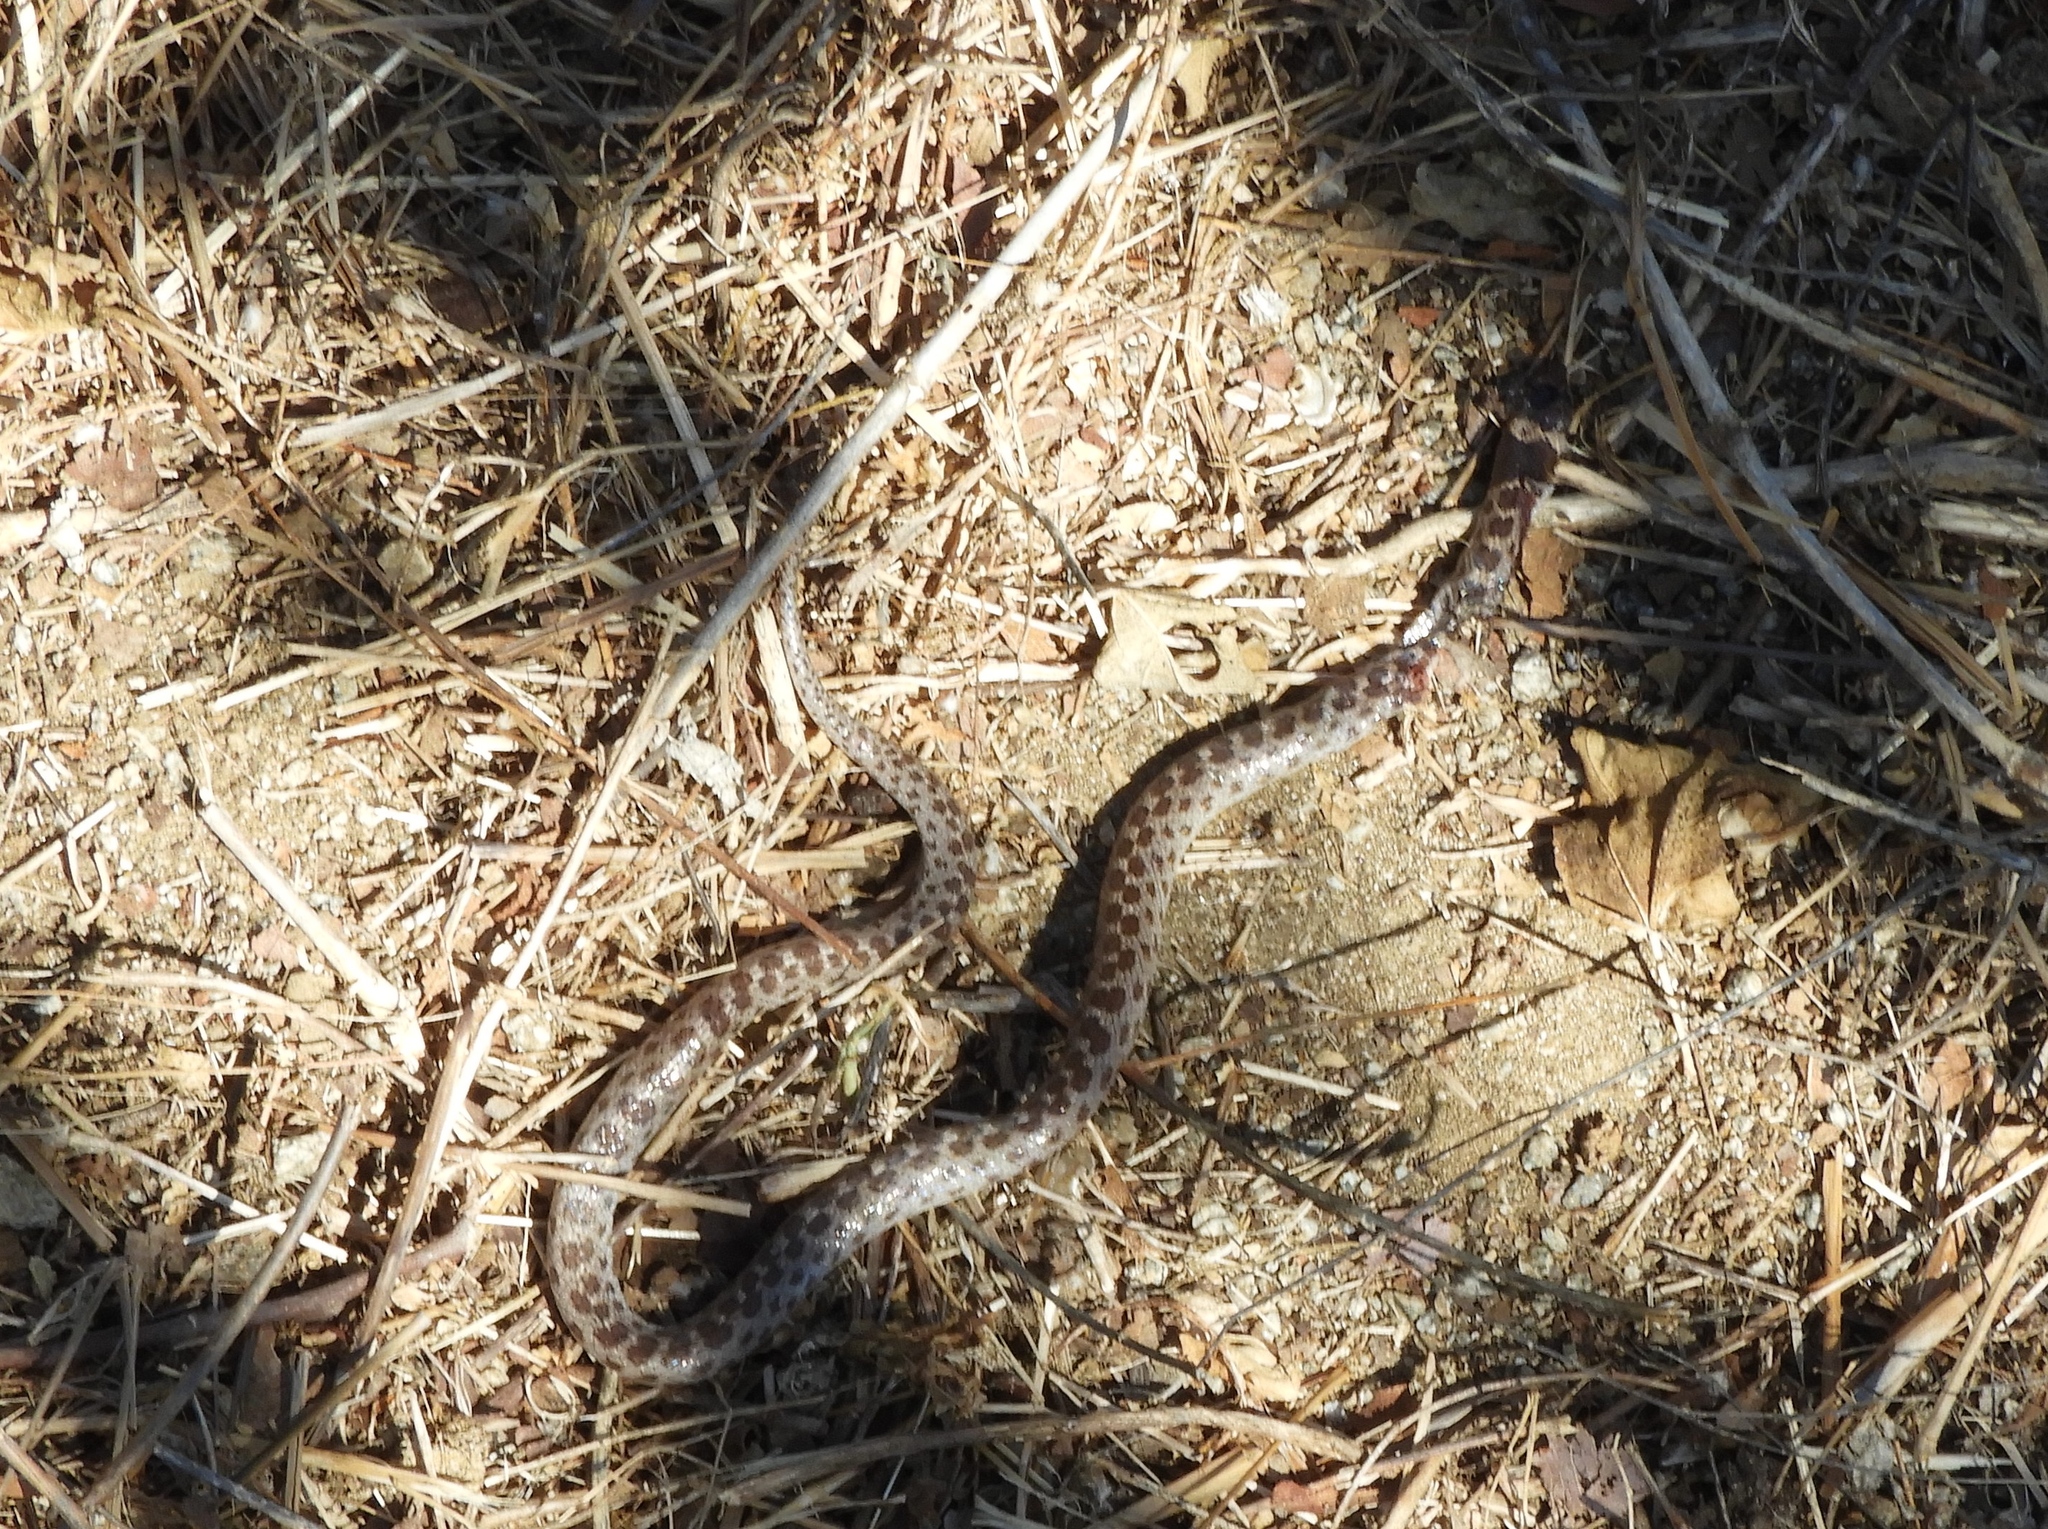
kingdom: Animalia
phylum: Chordata
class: Squamata
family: Colubridae
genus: Hypsiglena
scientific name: Hypsiglena torquata
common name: Night snake
